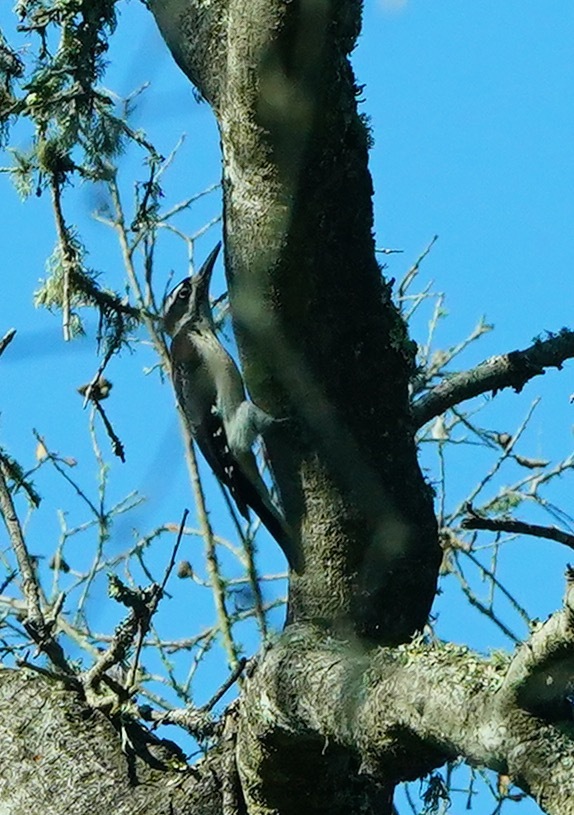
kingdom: Animalia
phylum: Chordata
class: Aves
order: Piciformes
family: Picidae
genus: Leuconotopicus
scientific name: Leuconotopicus villosus
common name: Hairy woodpecker
